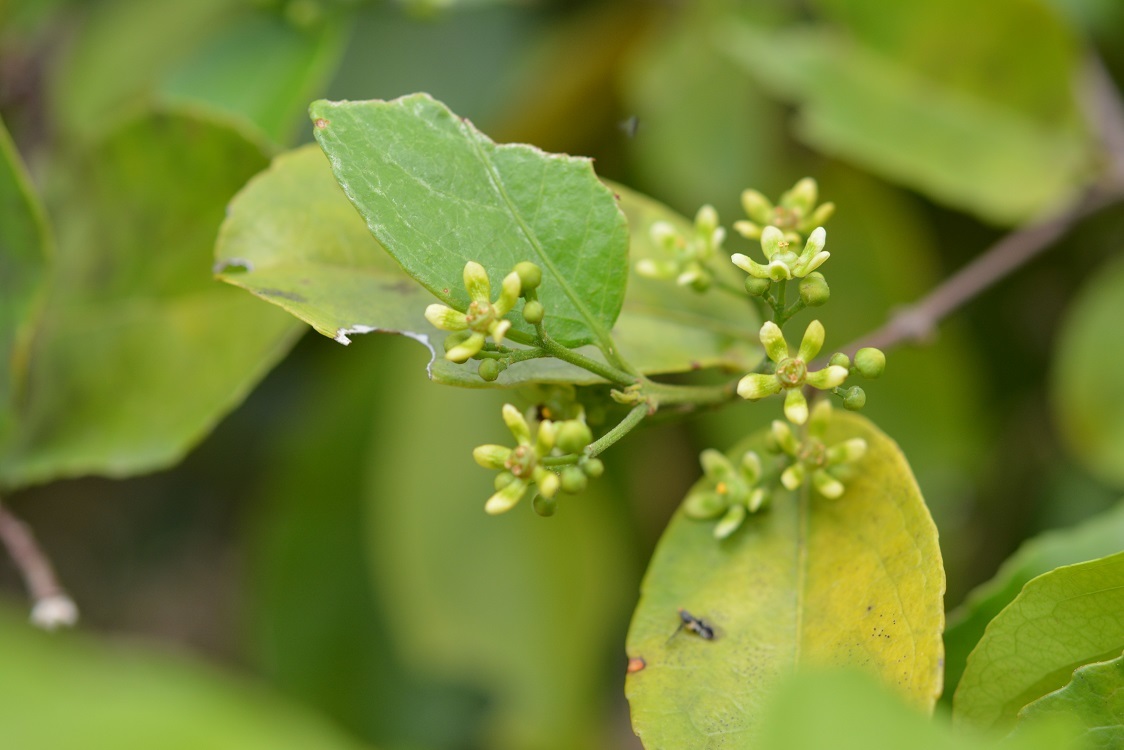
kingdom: Plantae
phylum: Tracheophyta
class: Magnoliopsida
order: Celastrales
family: Celastraceae
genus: Semialarium
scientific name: Semialarium mexicanum
